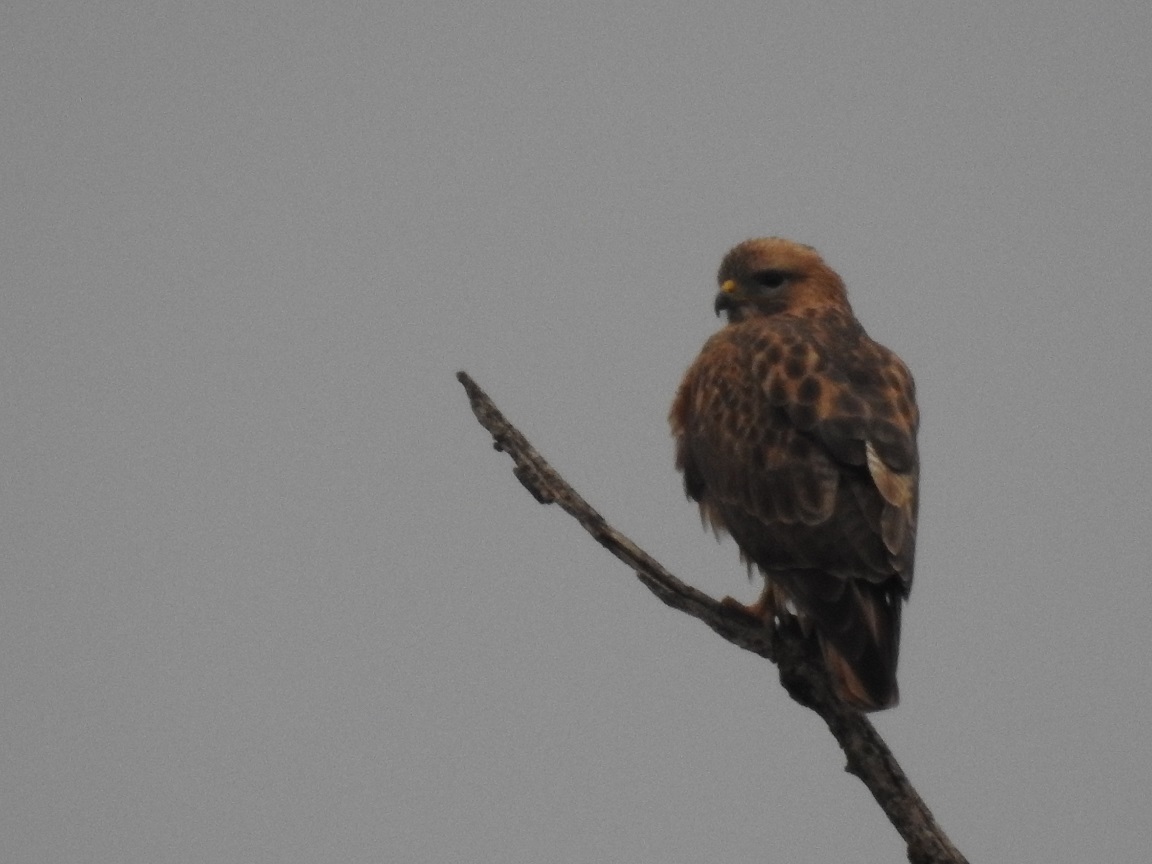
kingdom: Animalia
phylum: Chordata
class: Aves
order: Accipitriformes
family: Accipitridae
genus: Buteo
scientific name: Buteo rufinus
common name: Long-legged buzzard
